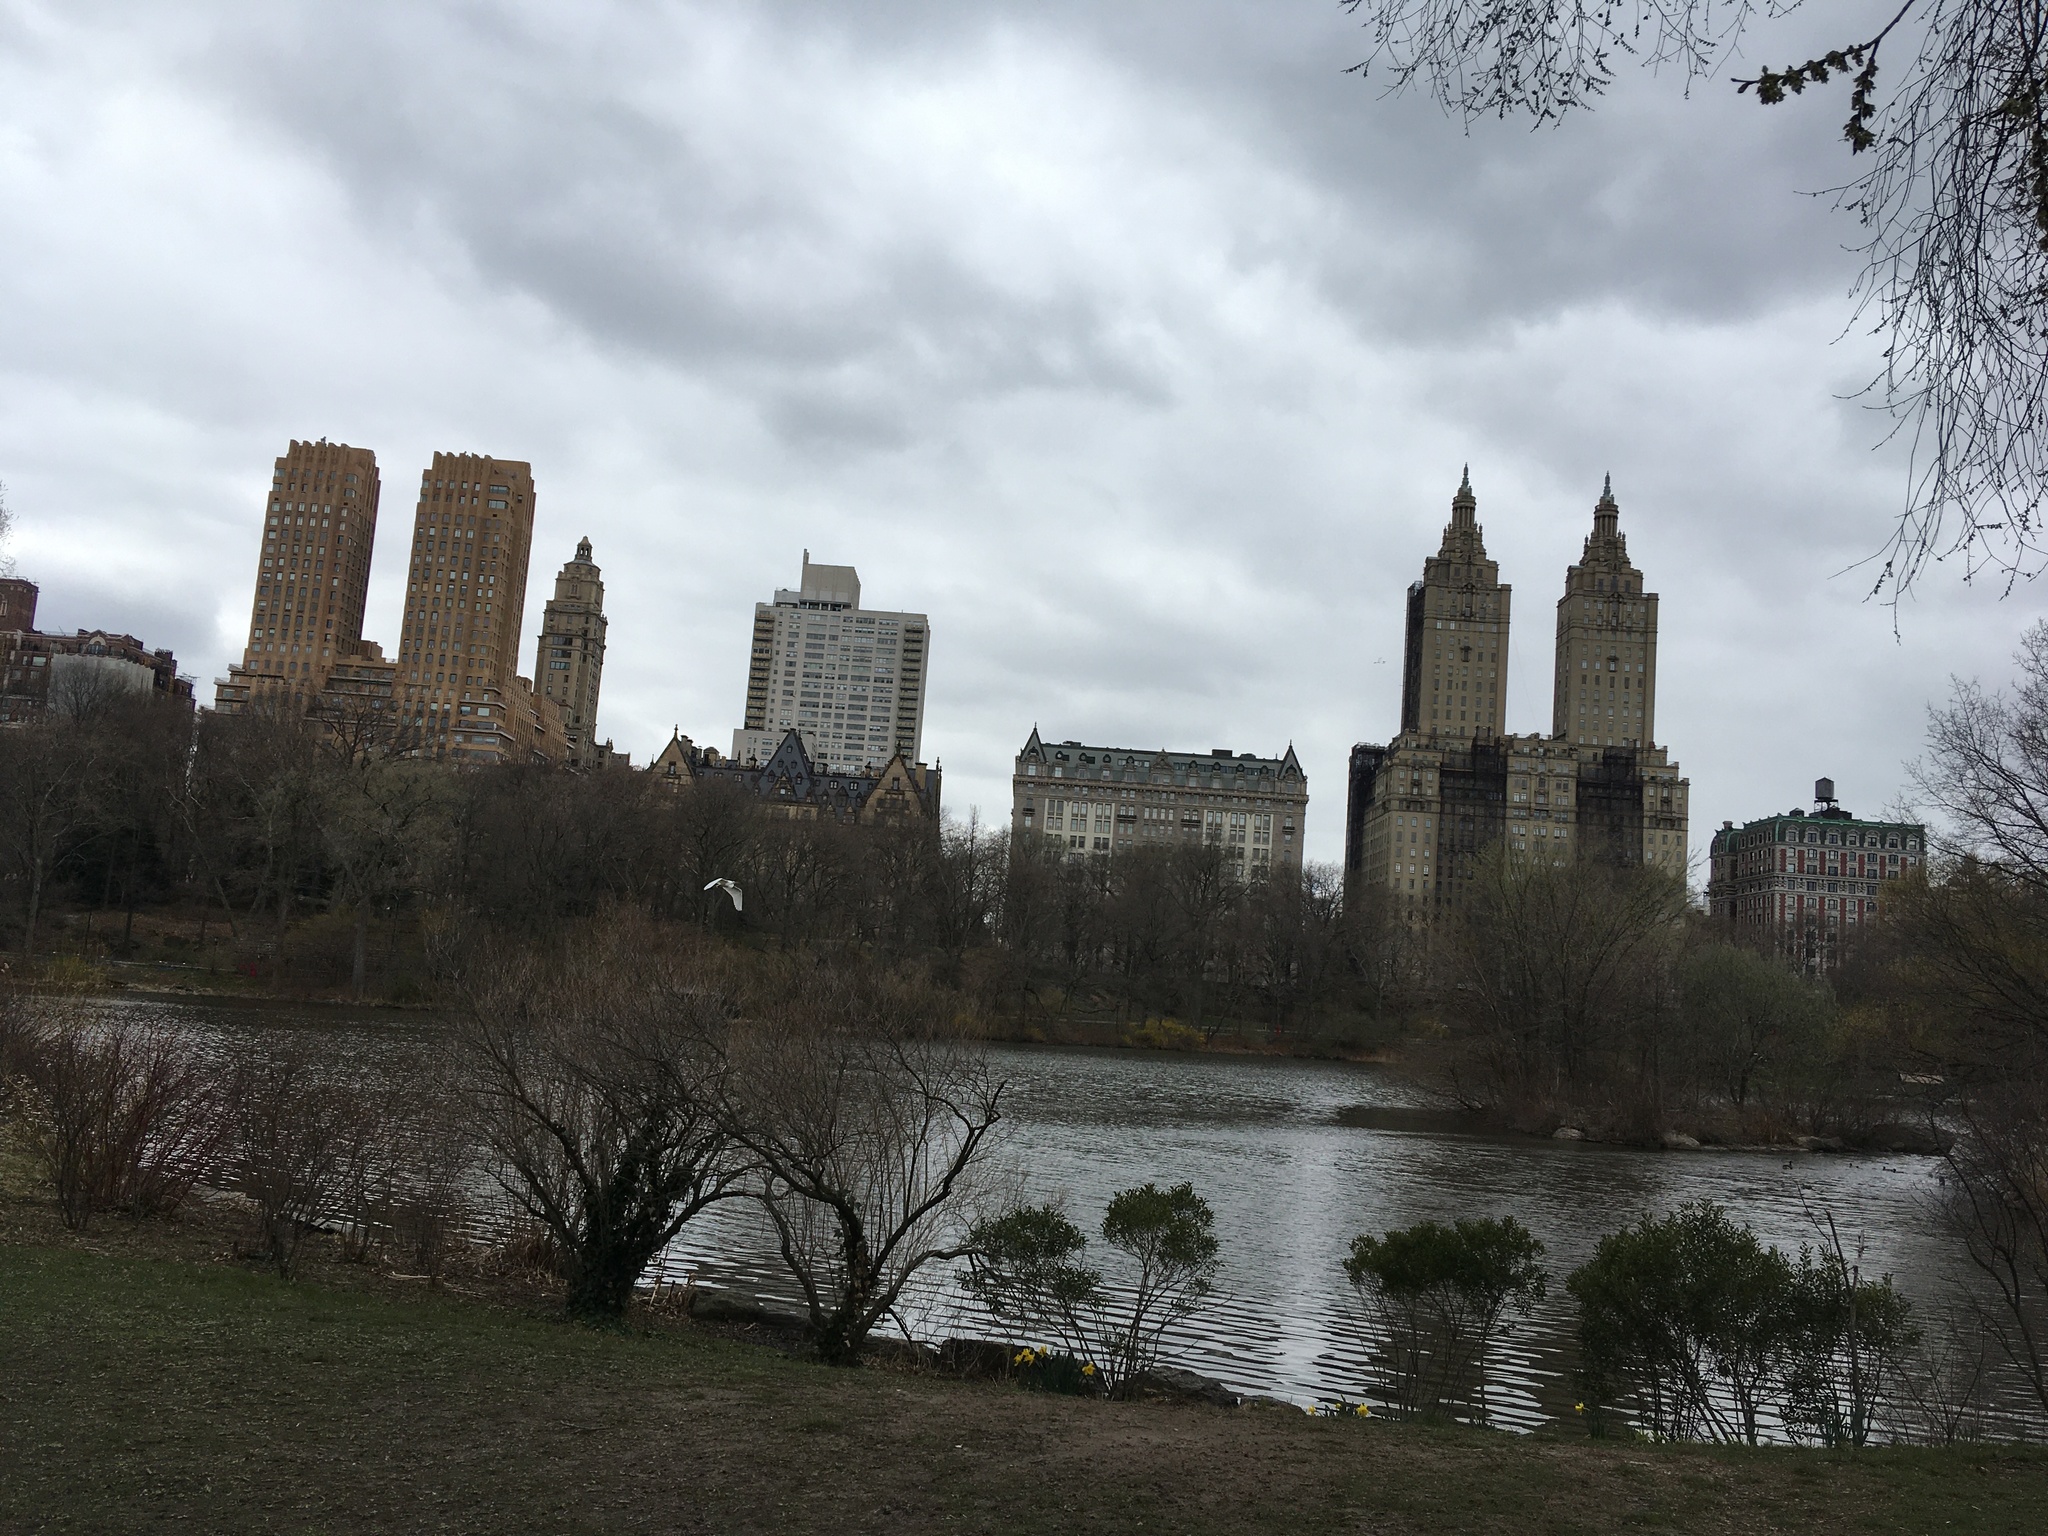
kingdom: Animalia
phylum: Chordata
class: Aves
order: Pelecaniformes
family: Ardeidae
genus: Ardea
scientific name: Ardea alba
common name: Great egret
